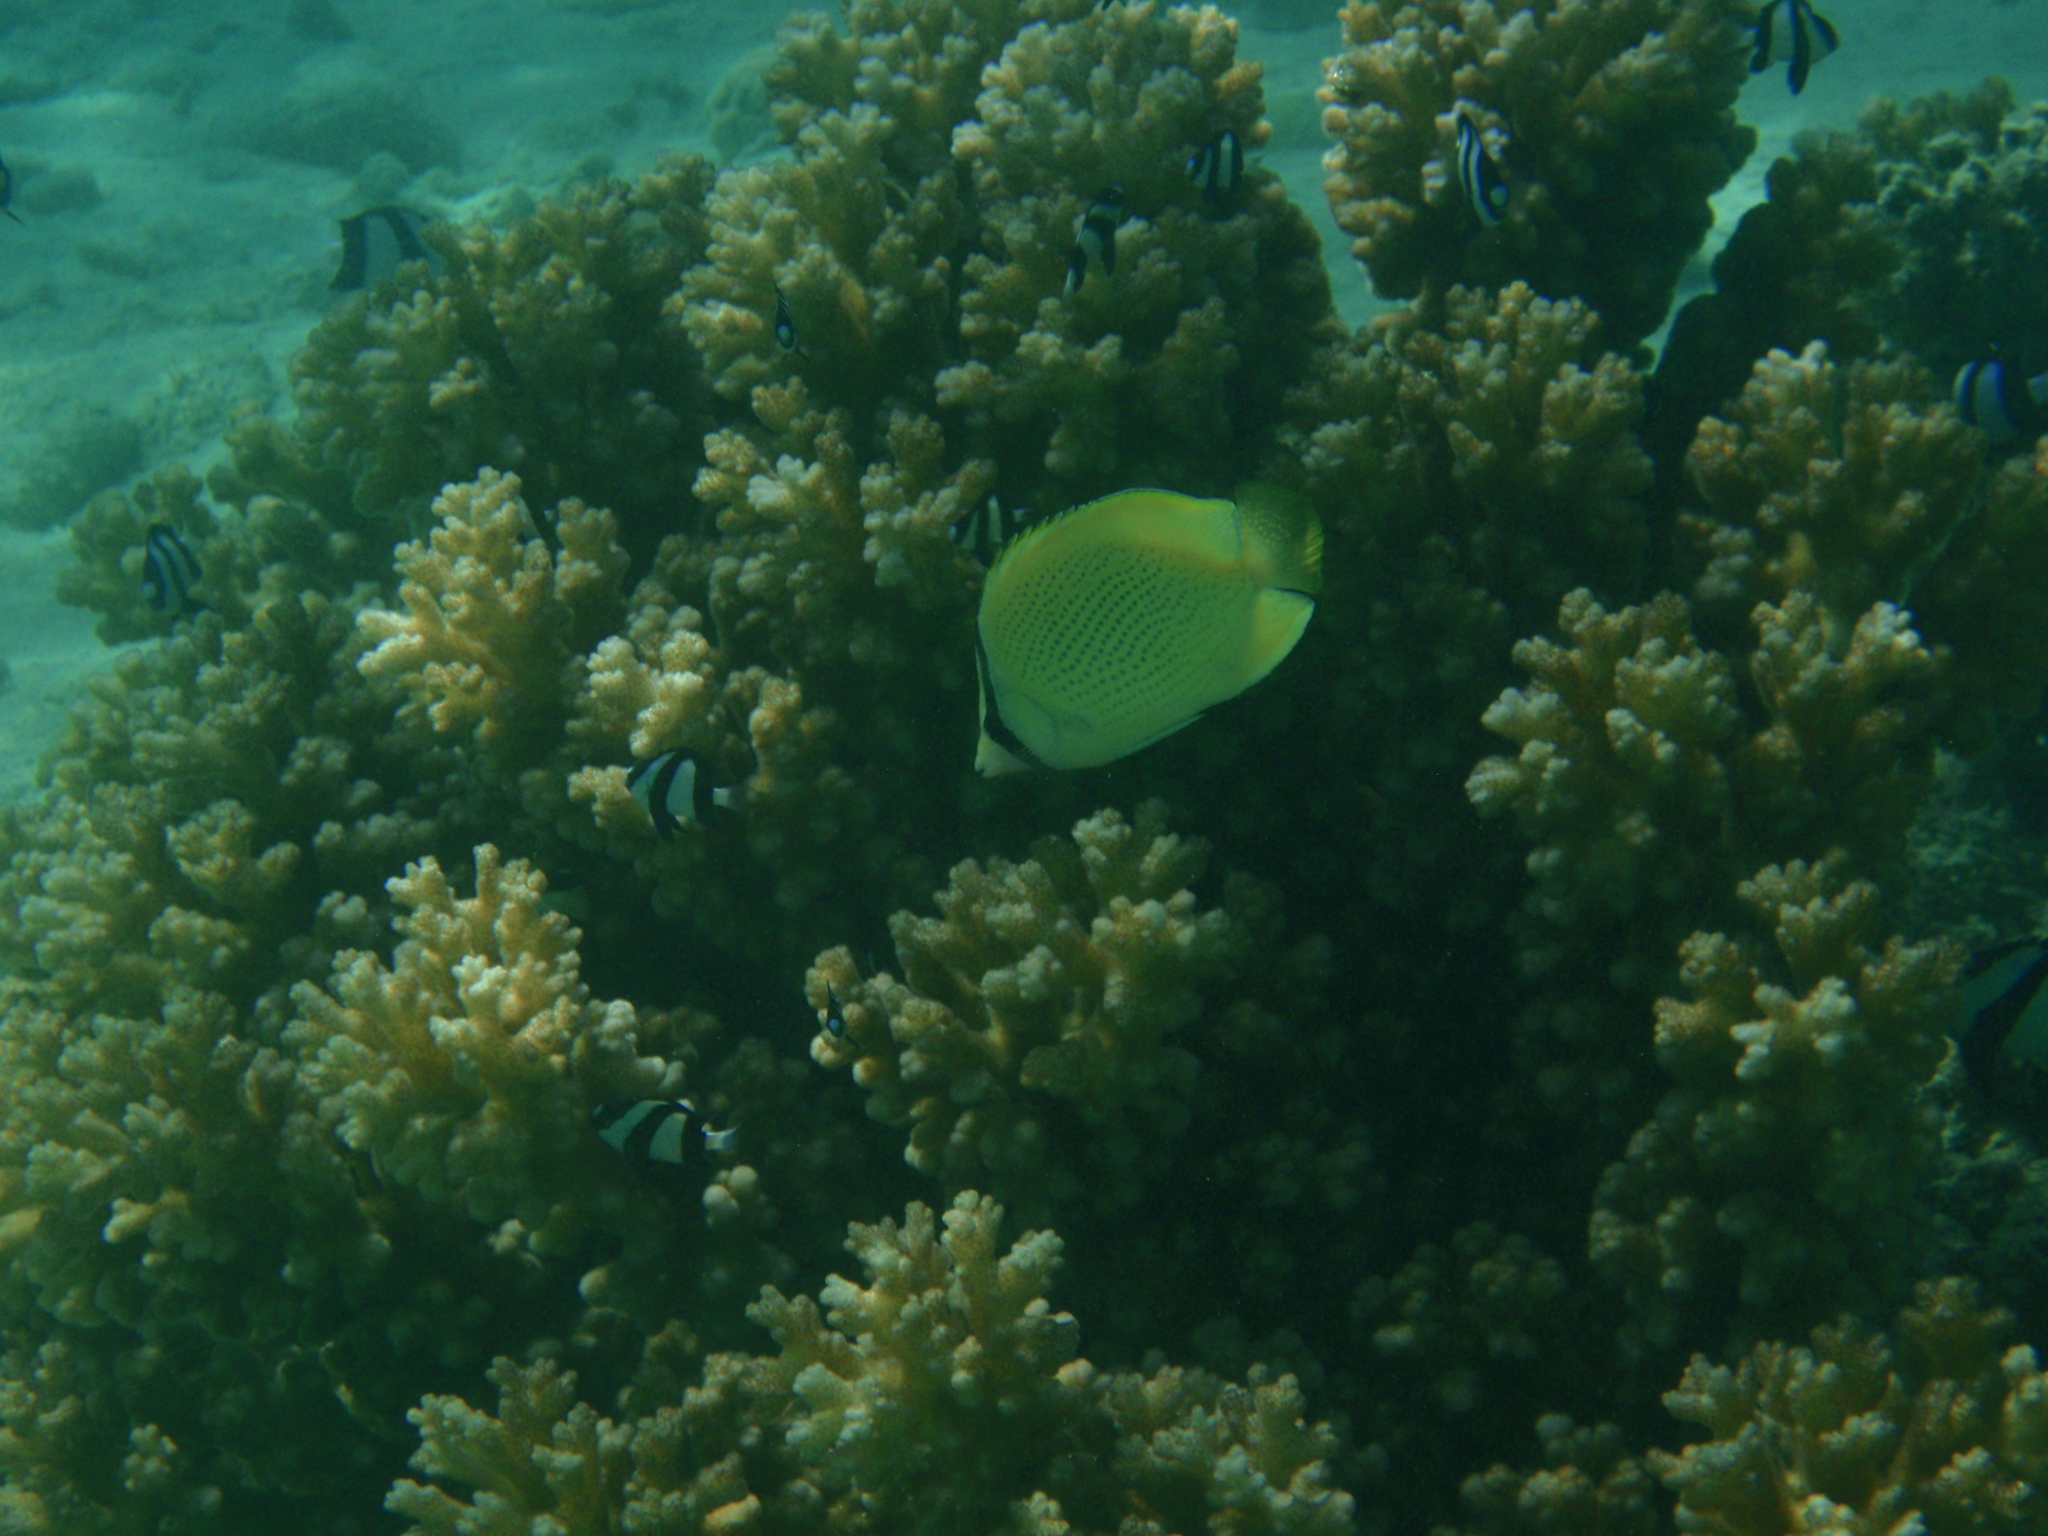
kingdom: Animalia
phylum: Chordata
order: Perciformes
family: Chaetodontidae
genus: Chaetodon
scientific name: Chaetodon citrinellus
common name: Speckled butterflyfish
